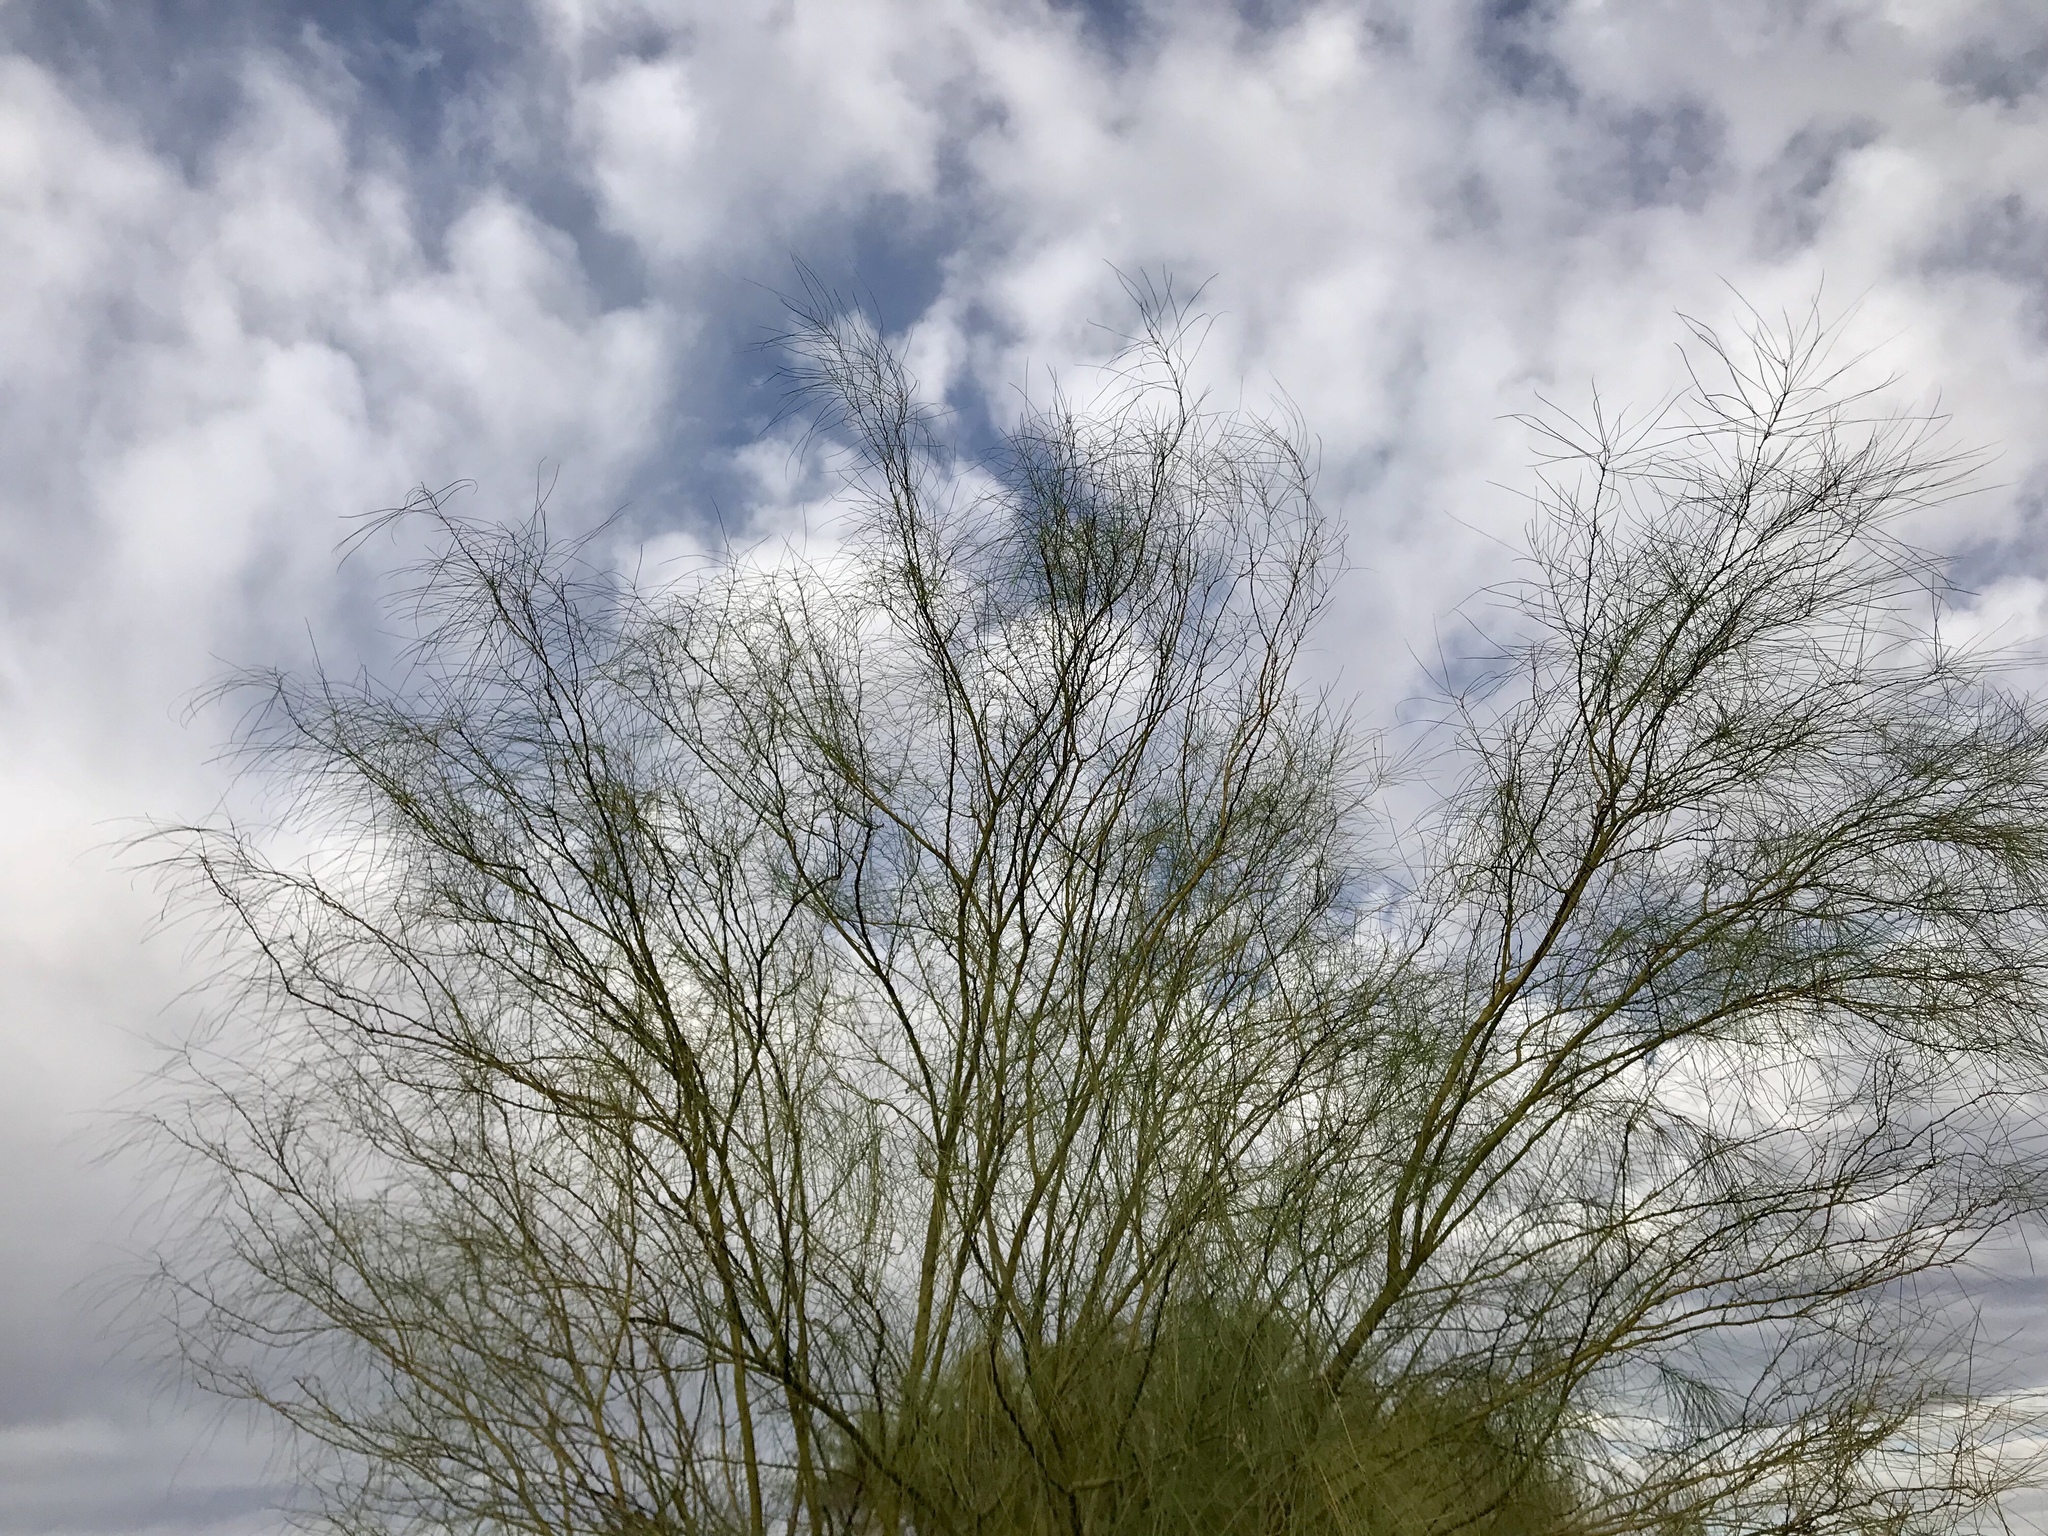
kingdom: Plantae
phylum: Tracheophyta
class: Magnoliopsida
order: Fabales
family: Fabaceae
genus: Parkinsonia
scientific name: Parkinsonia aculeata
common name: Jerusalem thorn
